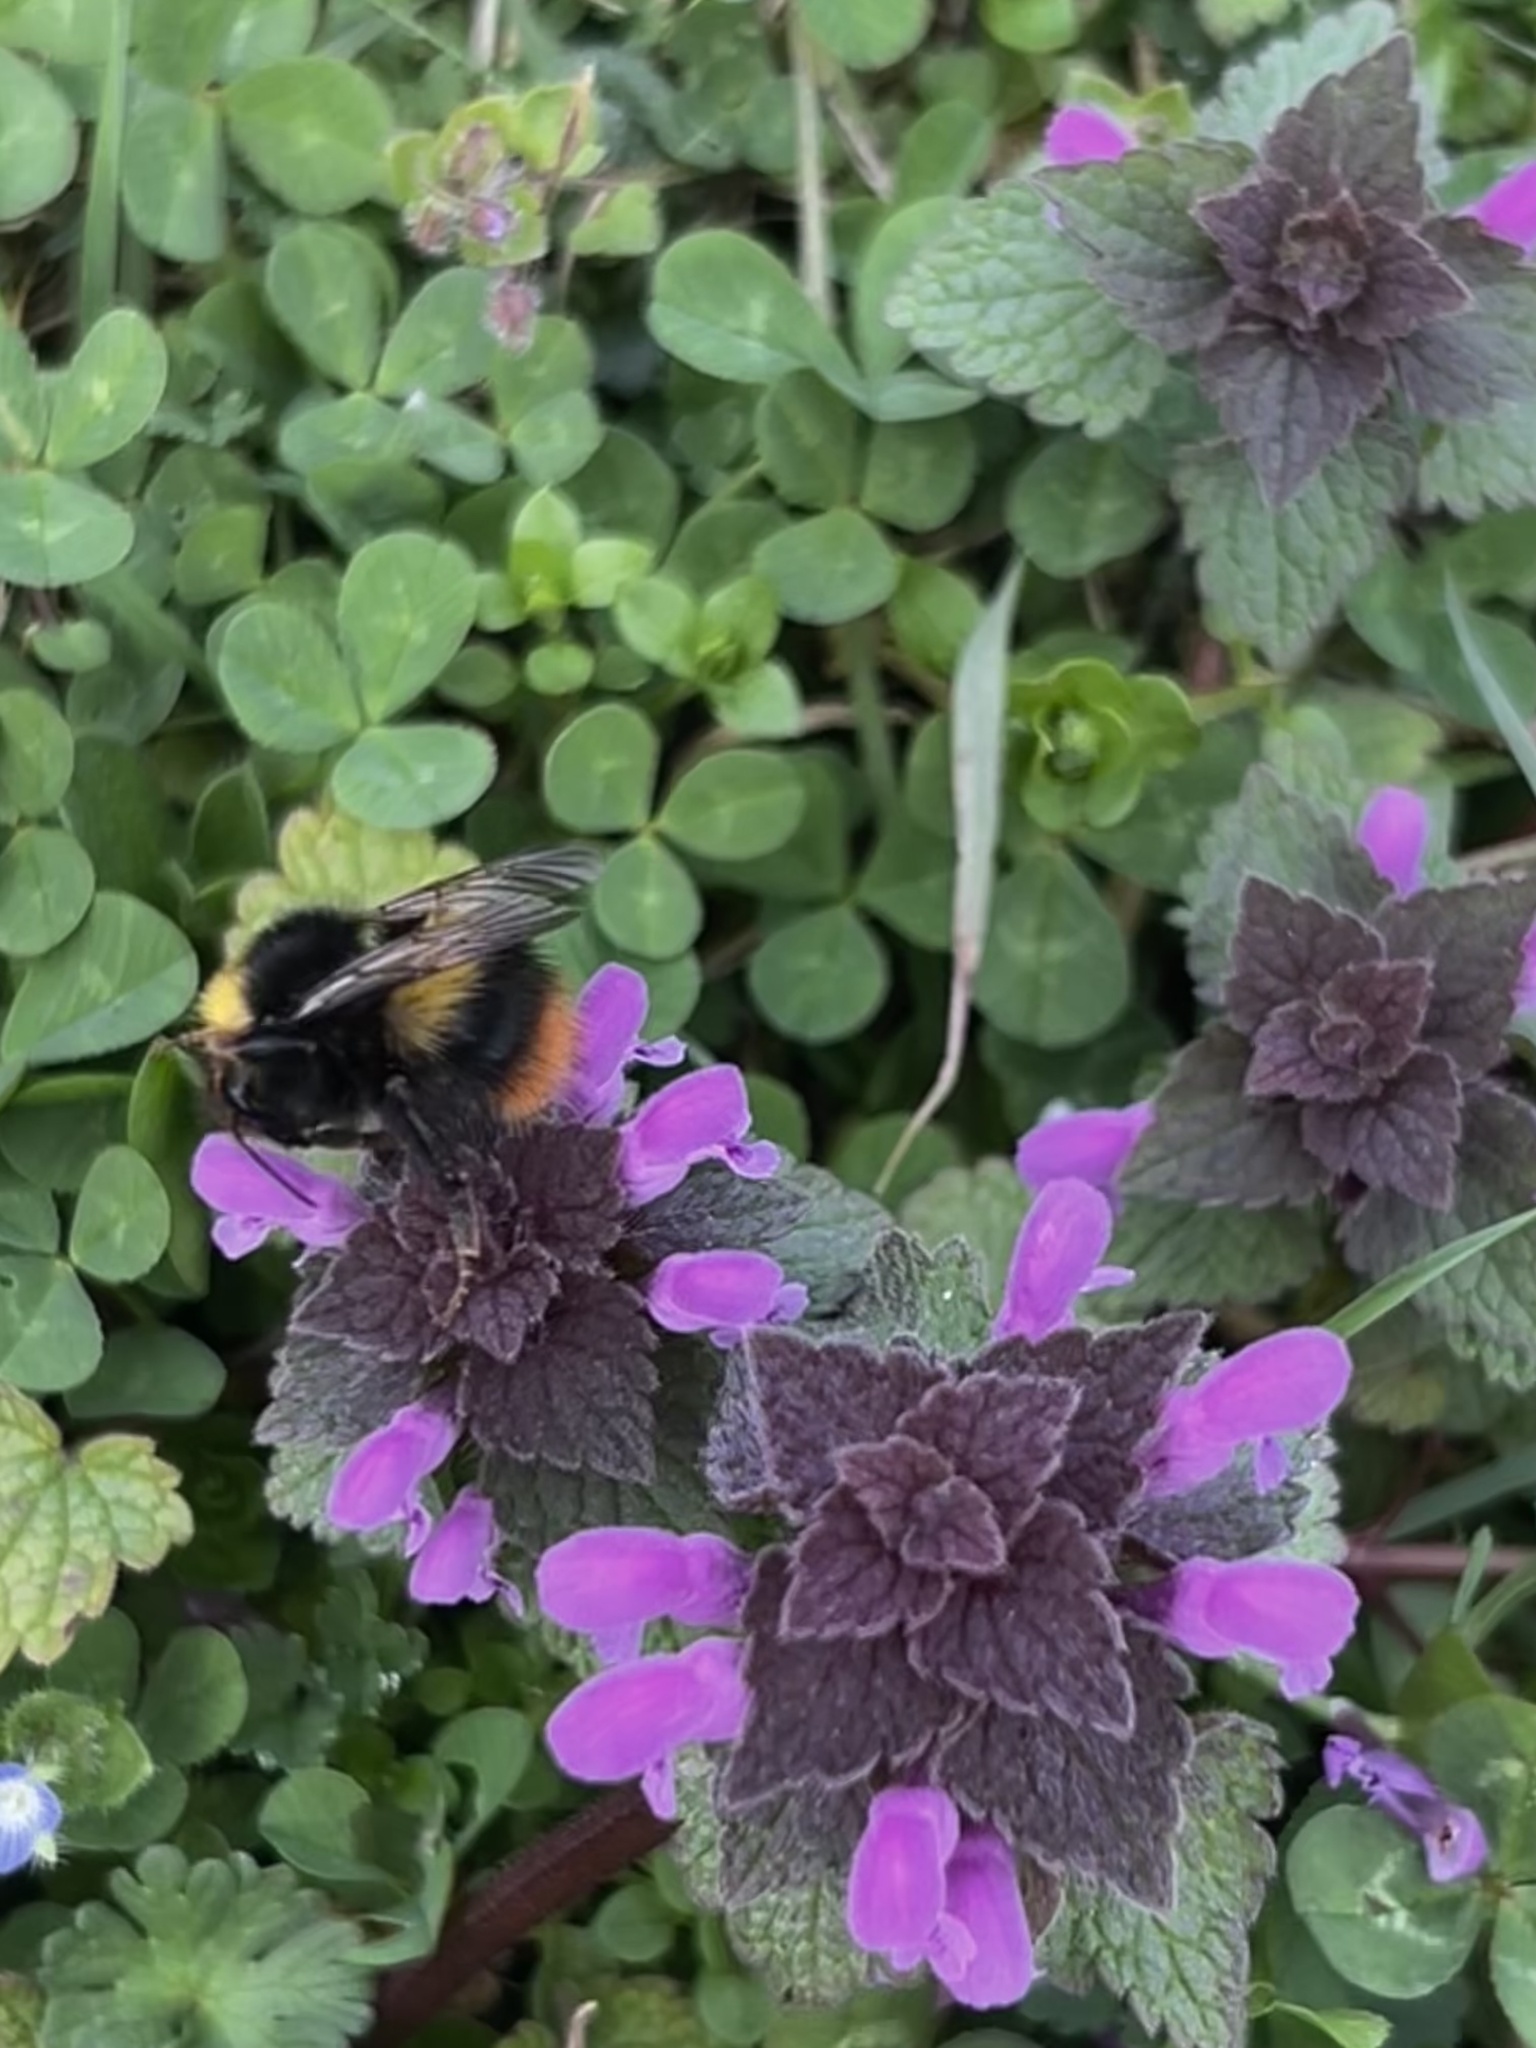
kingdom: Animalia
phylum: Arthropoda
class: Insecta
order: Hymenoptera
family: Apidae
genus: Bombus
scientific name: Bombus pratorum
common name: Early humble-bee
